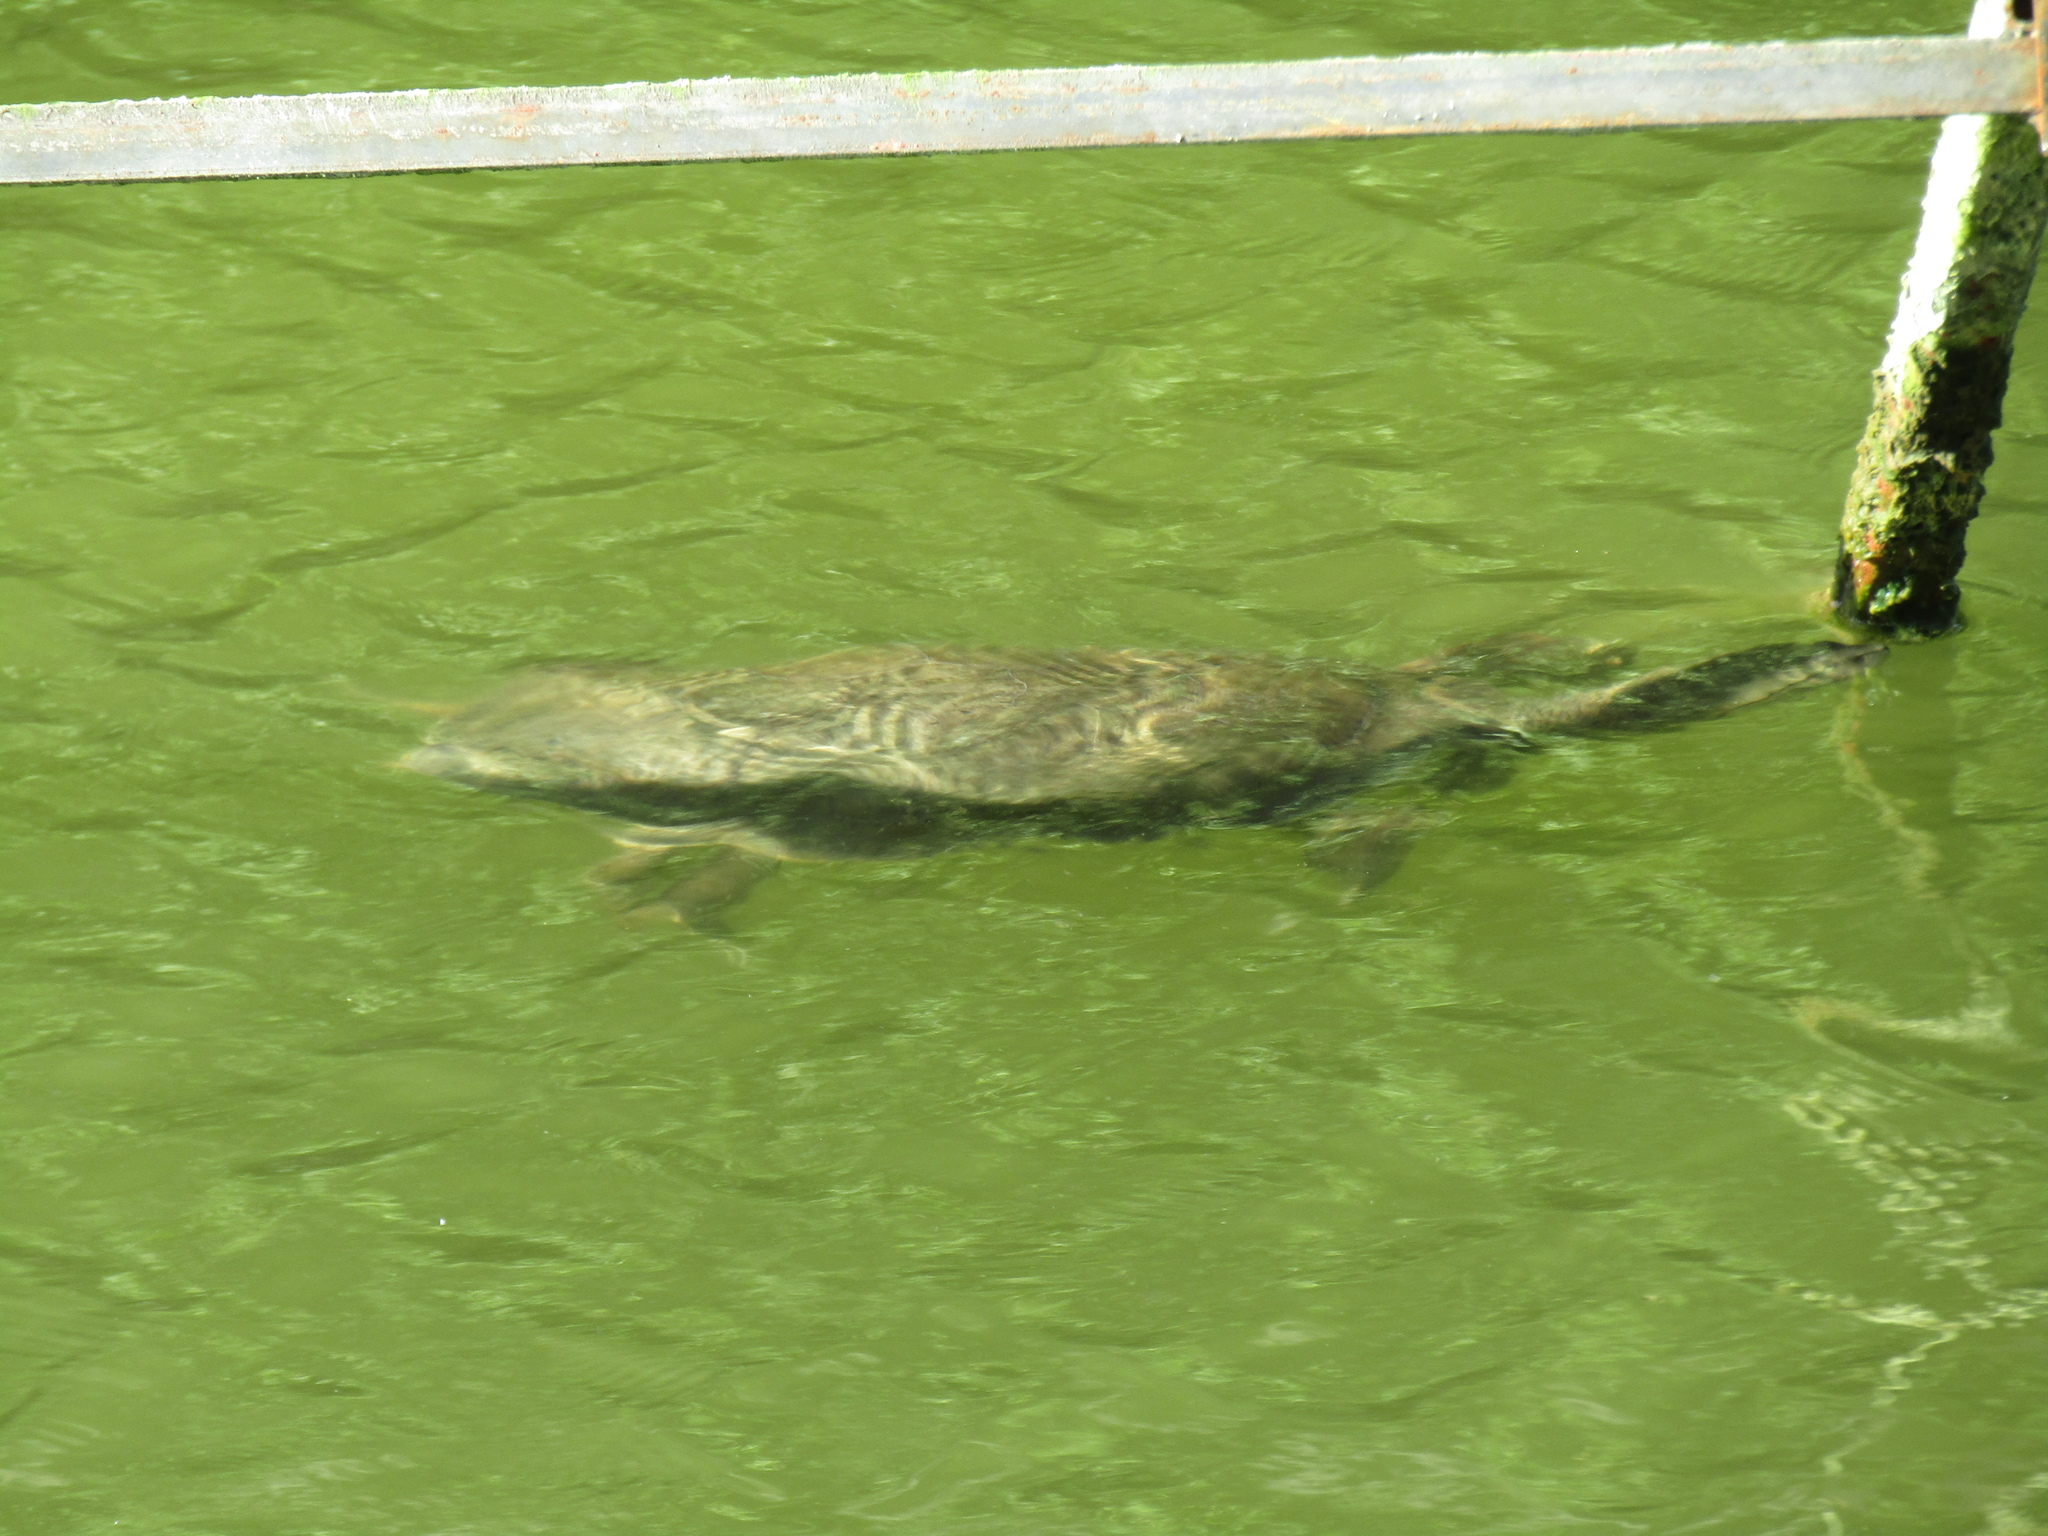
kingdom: Animalia
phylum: Chordata
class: Testudines
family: Chelidae
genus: Phrynops
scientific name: Phrynops hilarii
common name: Side-necked turtle of saint hillaire
